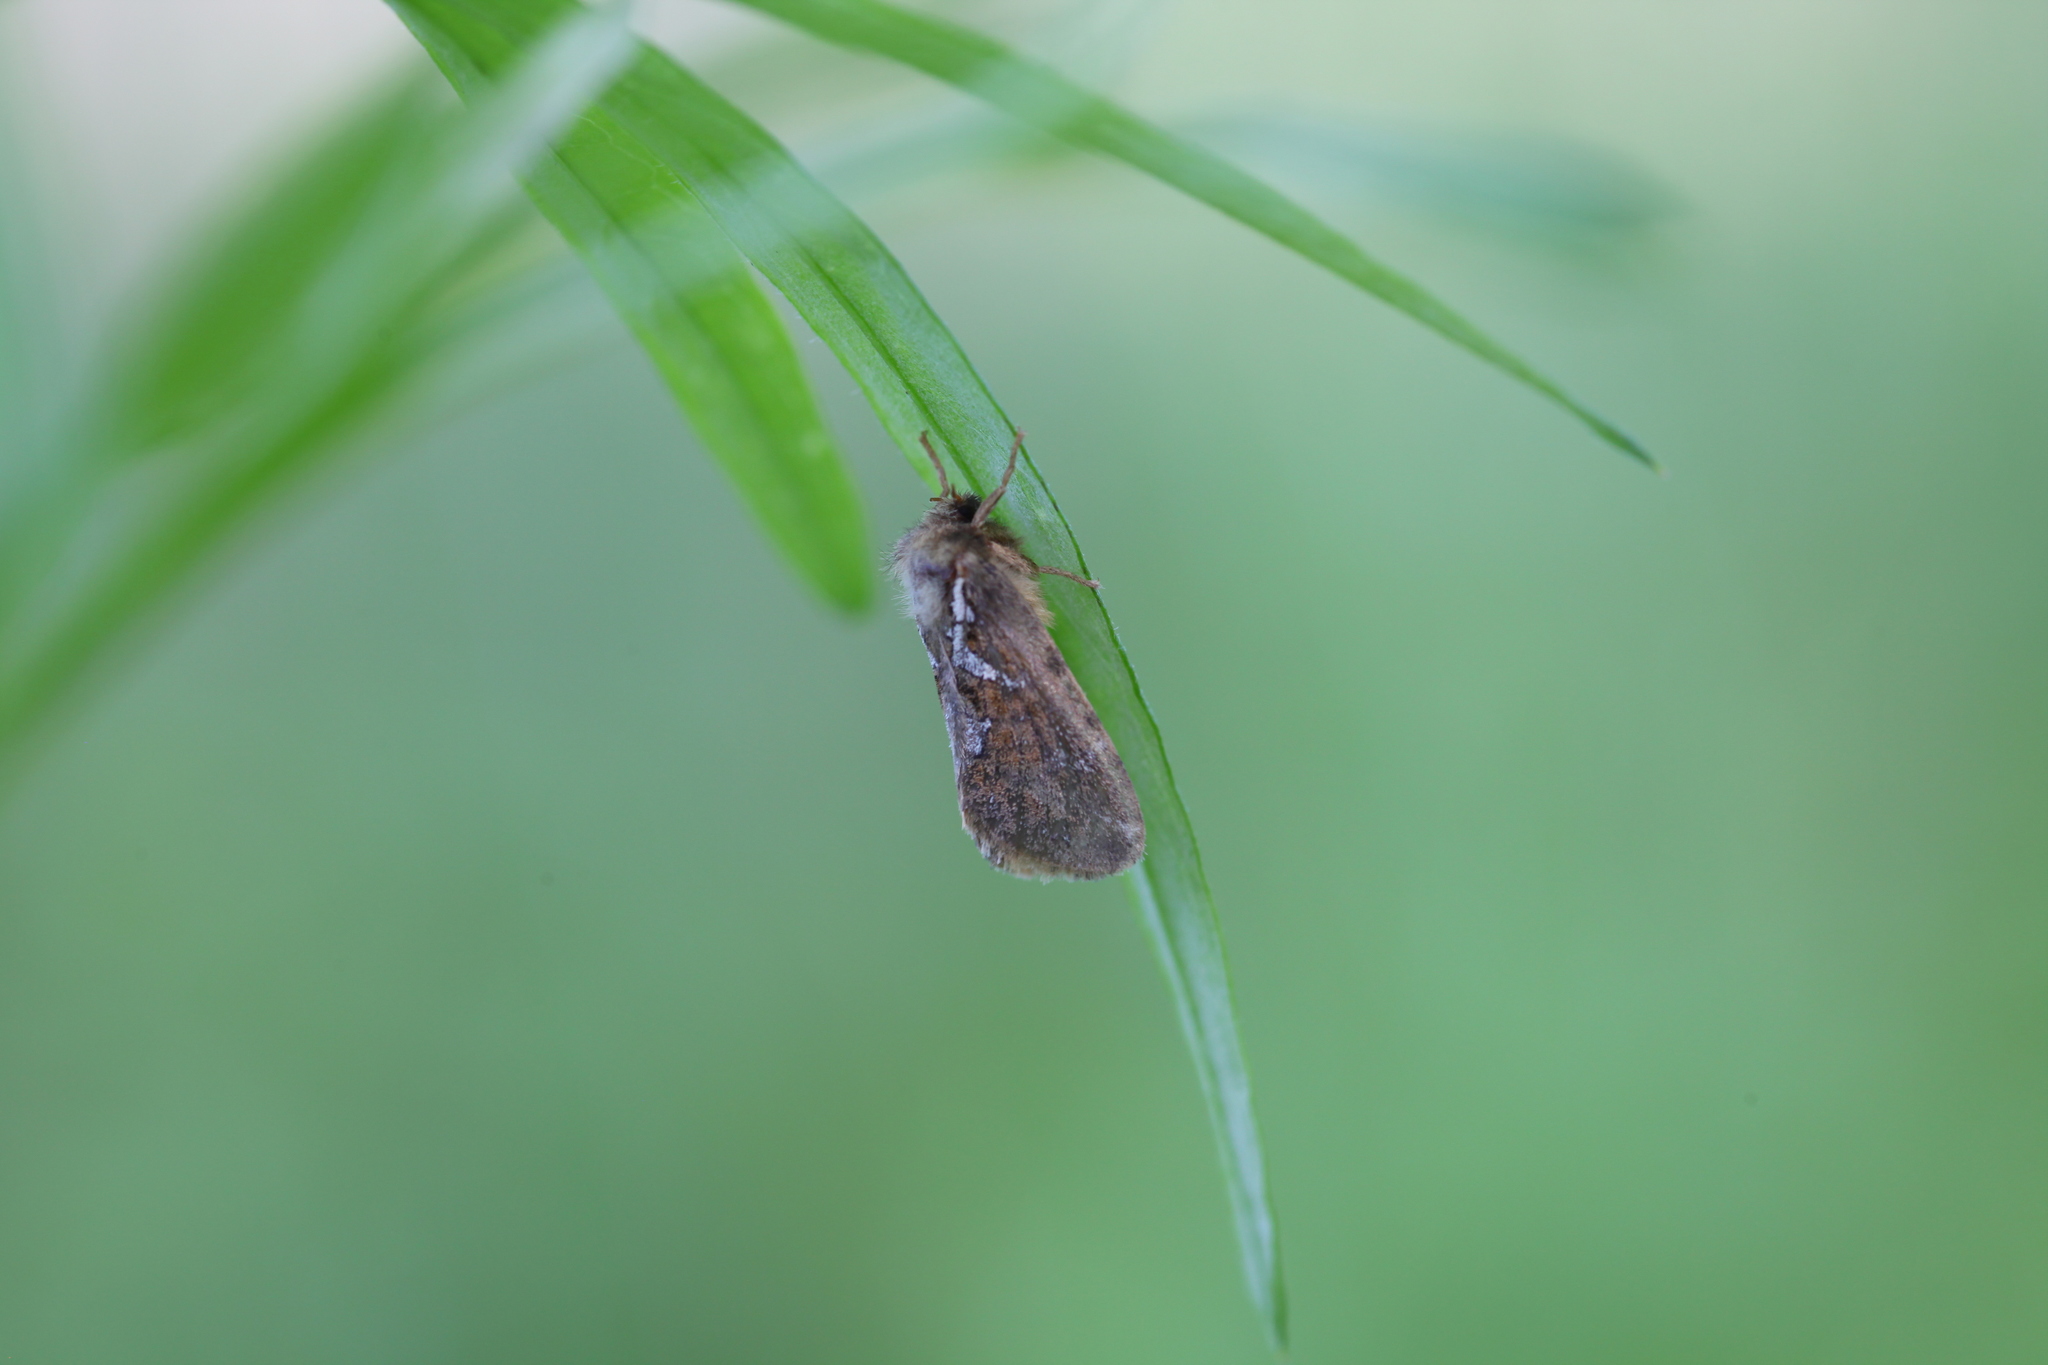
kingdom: Animalia
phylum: Arthropoda
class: Insecta
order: Lepidoptera
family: Hepialidae
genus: Thitarodes
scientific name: Thitarodes variabilis
